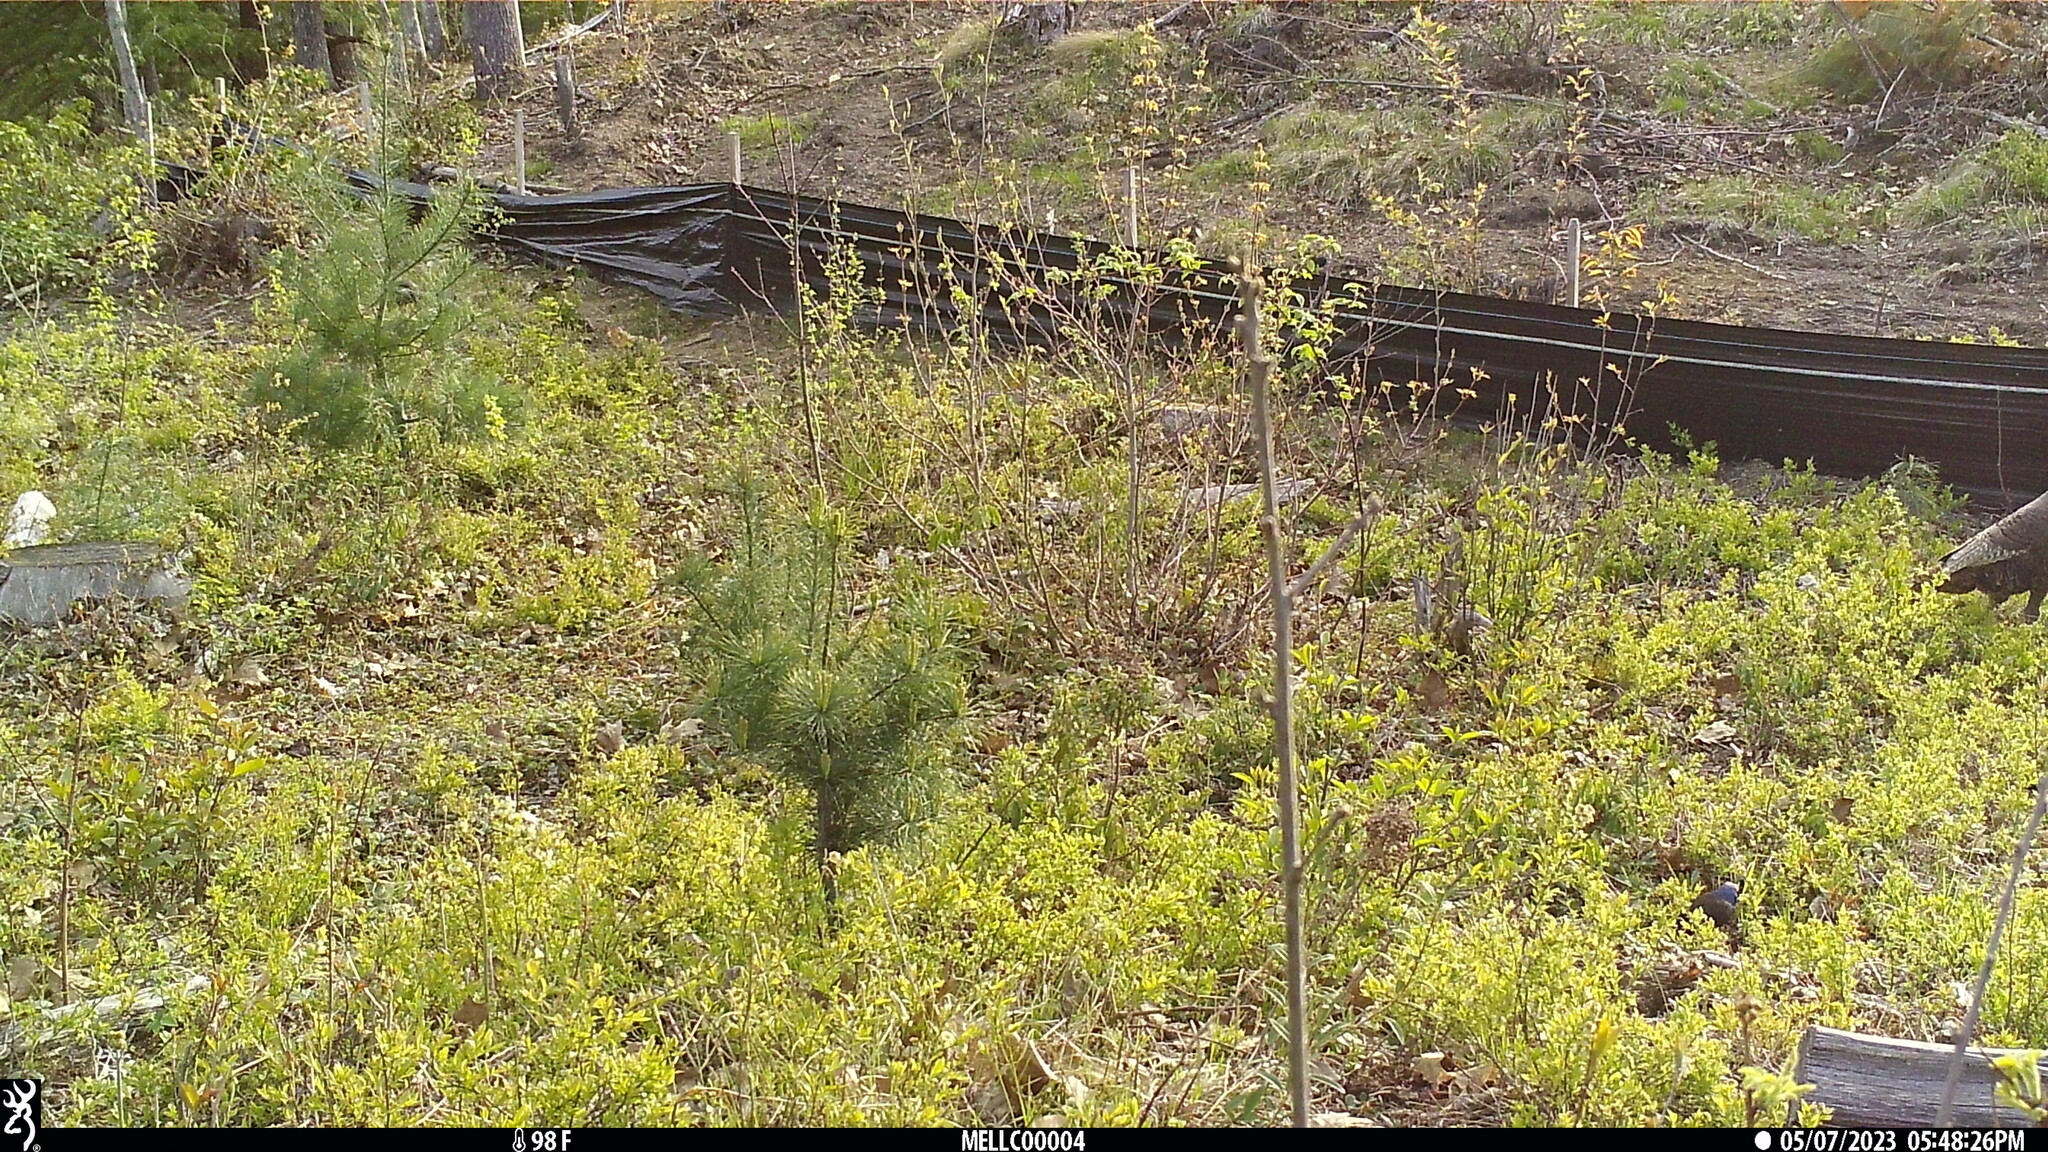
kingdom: Animalia
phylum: Chordata
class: Aves
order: Galliformes
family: Phasianidae
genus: Meleagris
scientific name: Meleagris gallopavo
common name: Wild turkey
